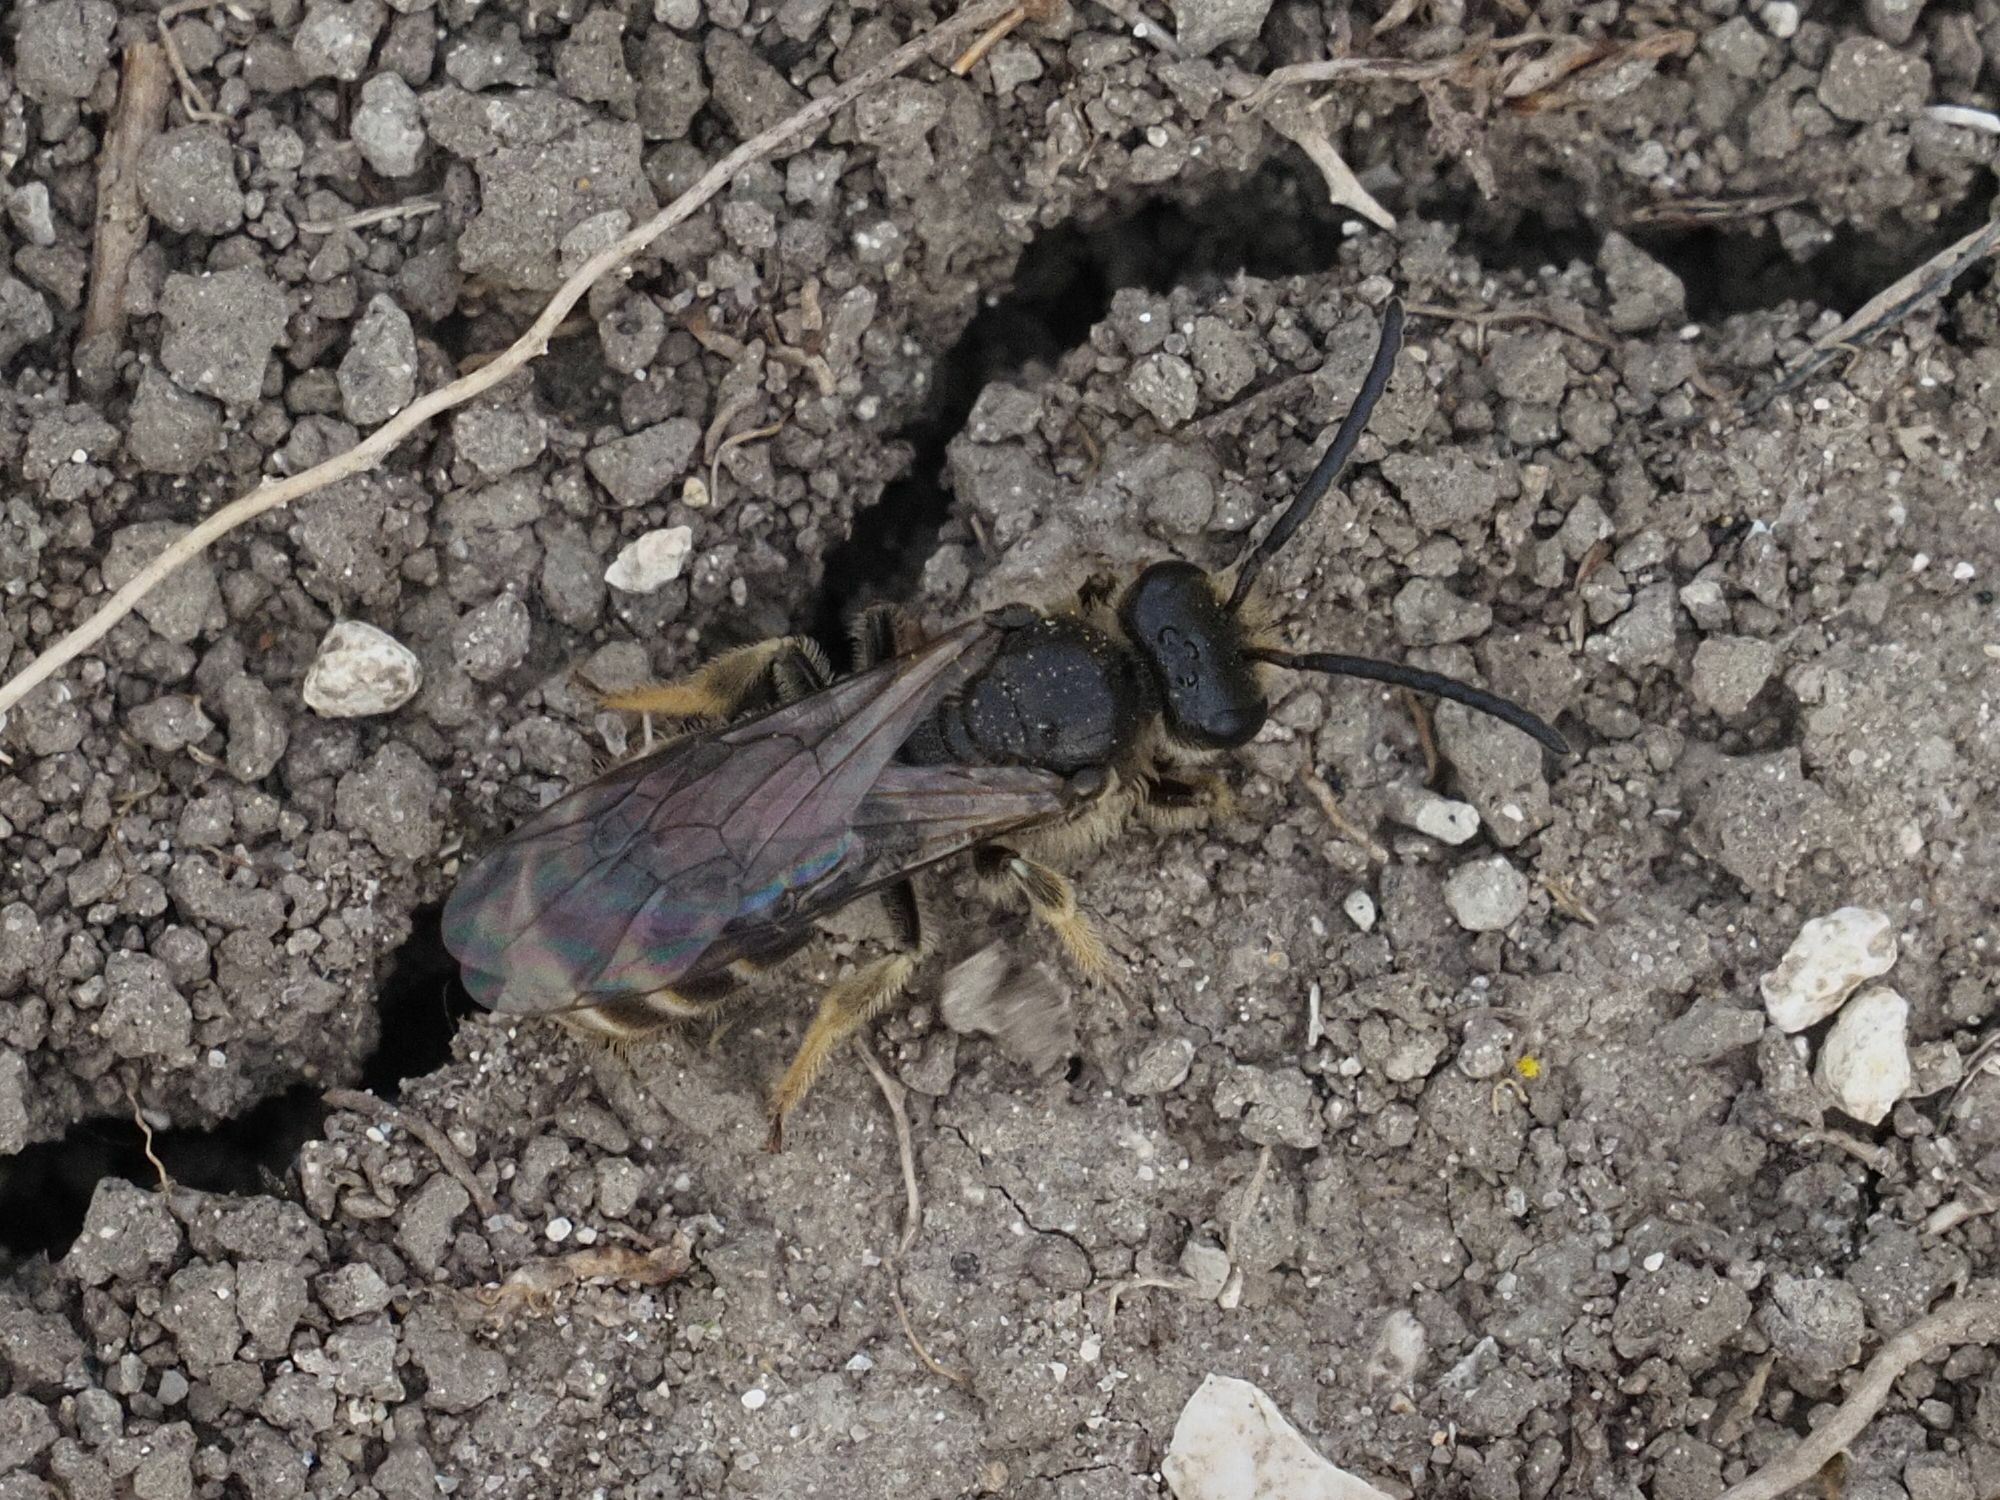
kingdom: Animalia
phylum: Arthropoda
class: Insecta
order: Hymenoptera
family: Halictidae
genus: Lasioglossum
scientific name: Lasioglossum marginatum
